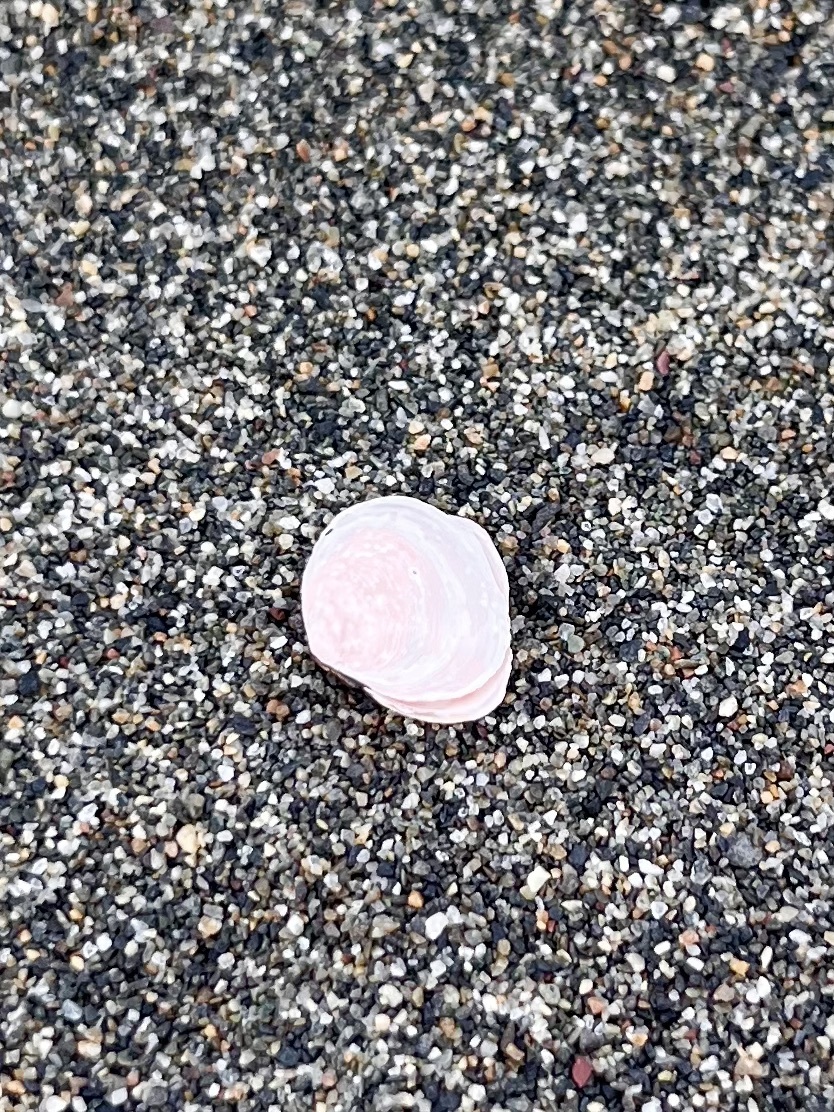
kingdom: Animalia
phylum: Mollusca
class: Bivalvia
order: Cardiida
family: Tellinidae
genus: Macoma
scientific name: Macoma balthica
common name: Baltic tellin
